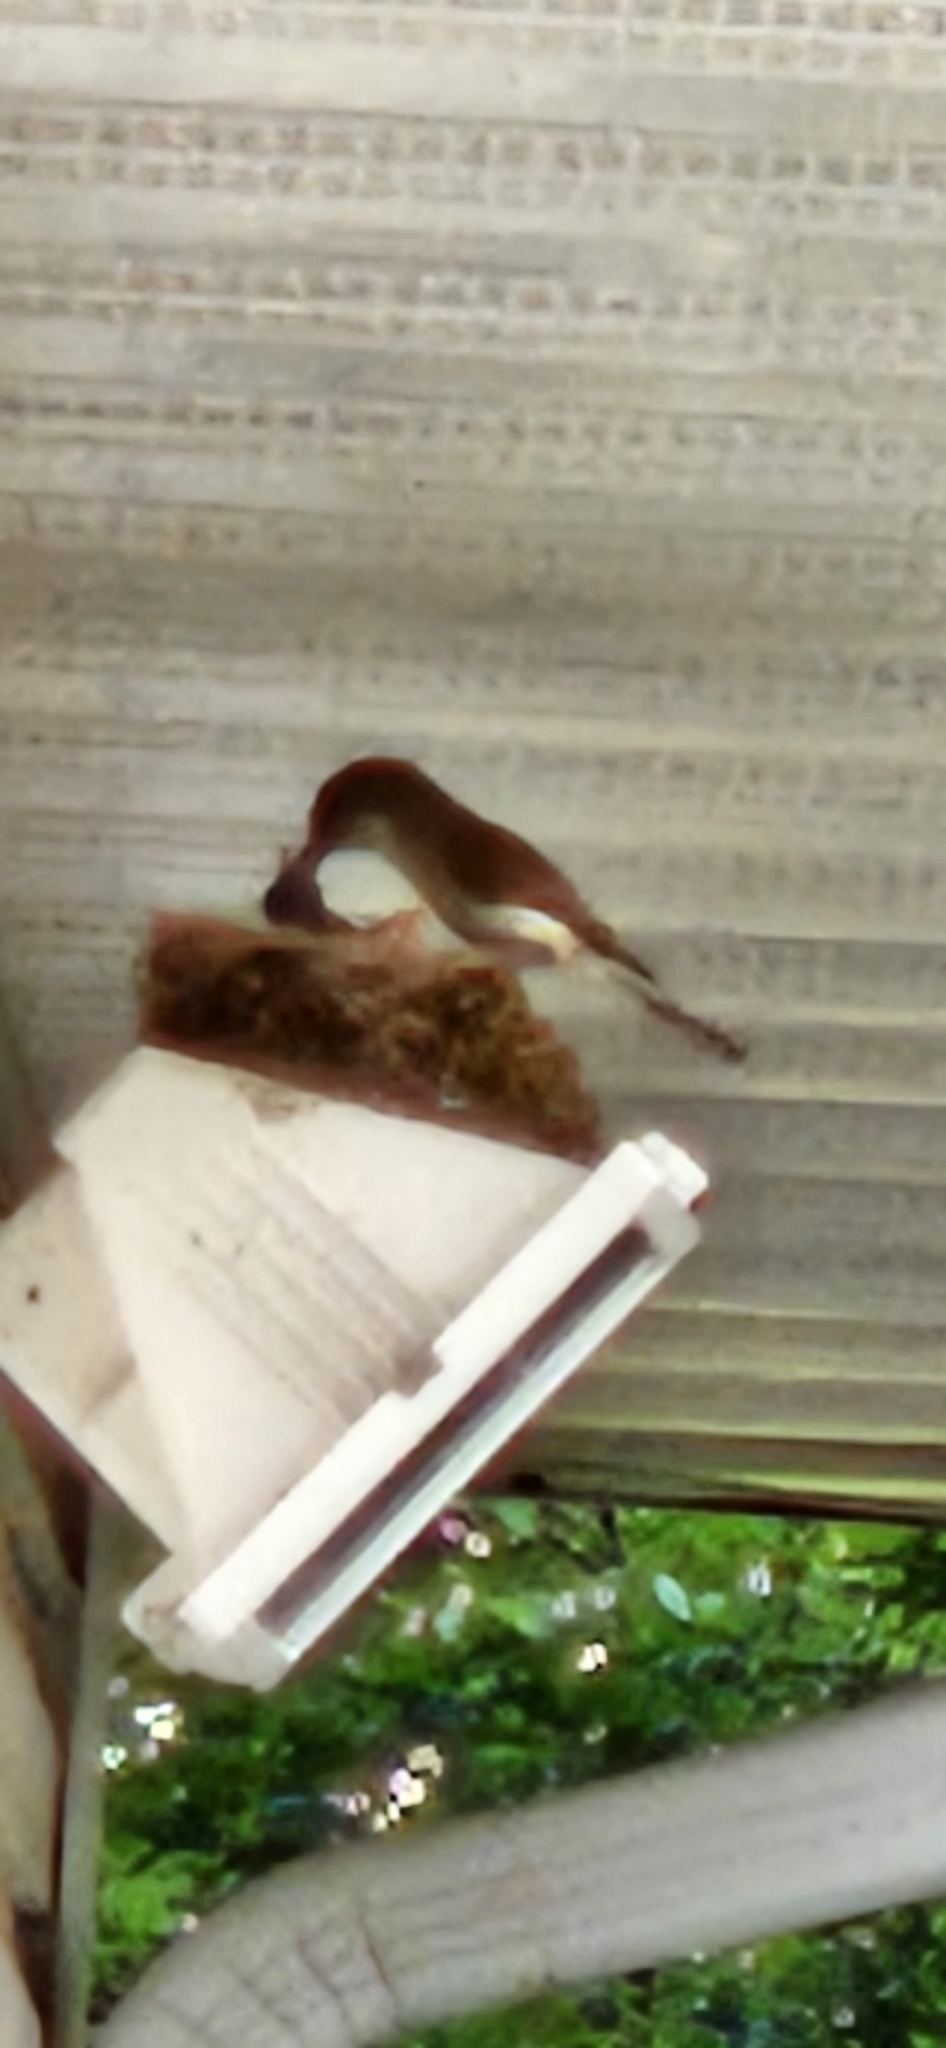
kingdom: Animalia
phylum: Chordata
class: Aves
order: Passeriformes
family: Tyrannidae
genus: Sayornis
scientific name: Sayornis phoebe
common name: Eastern phoebe
